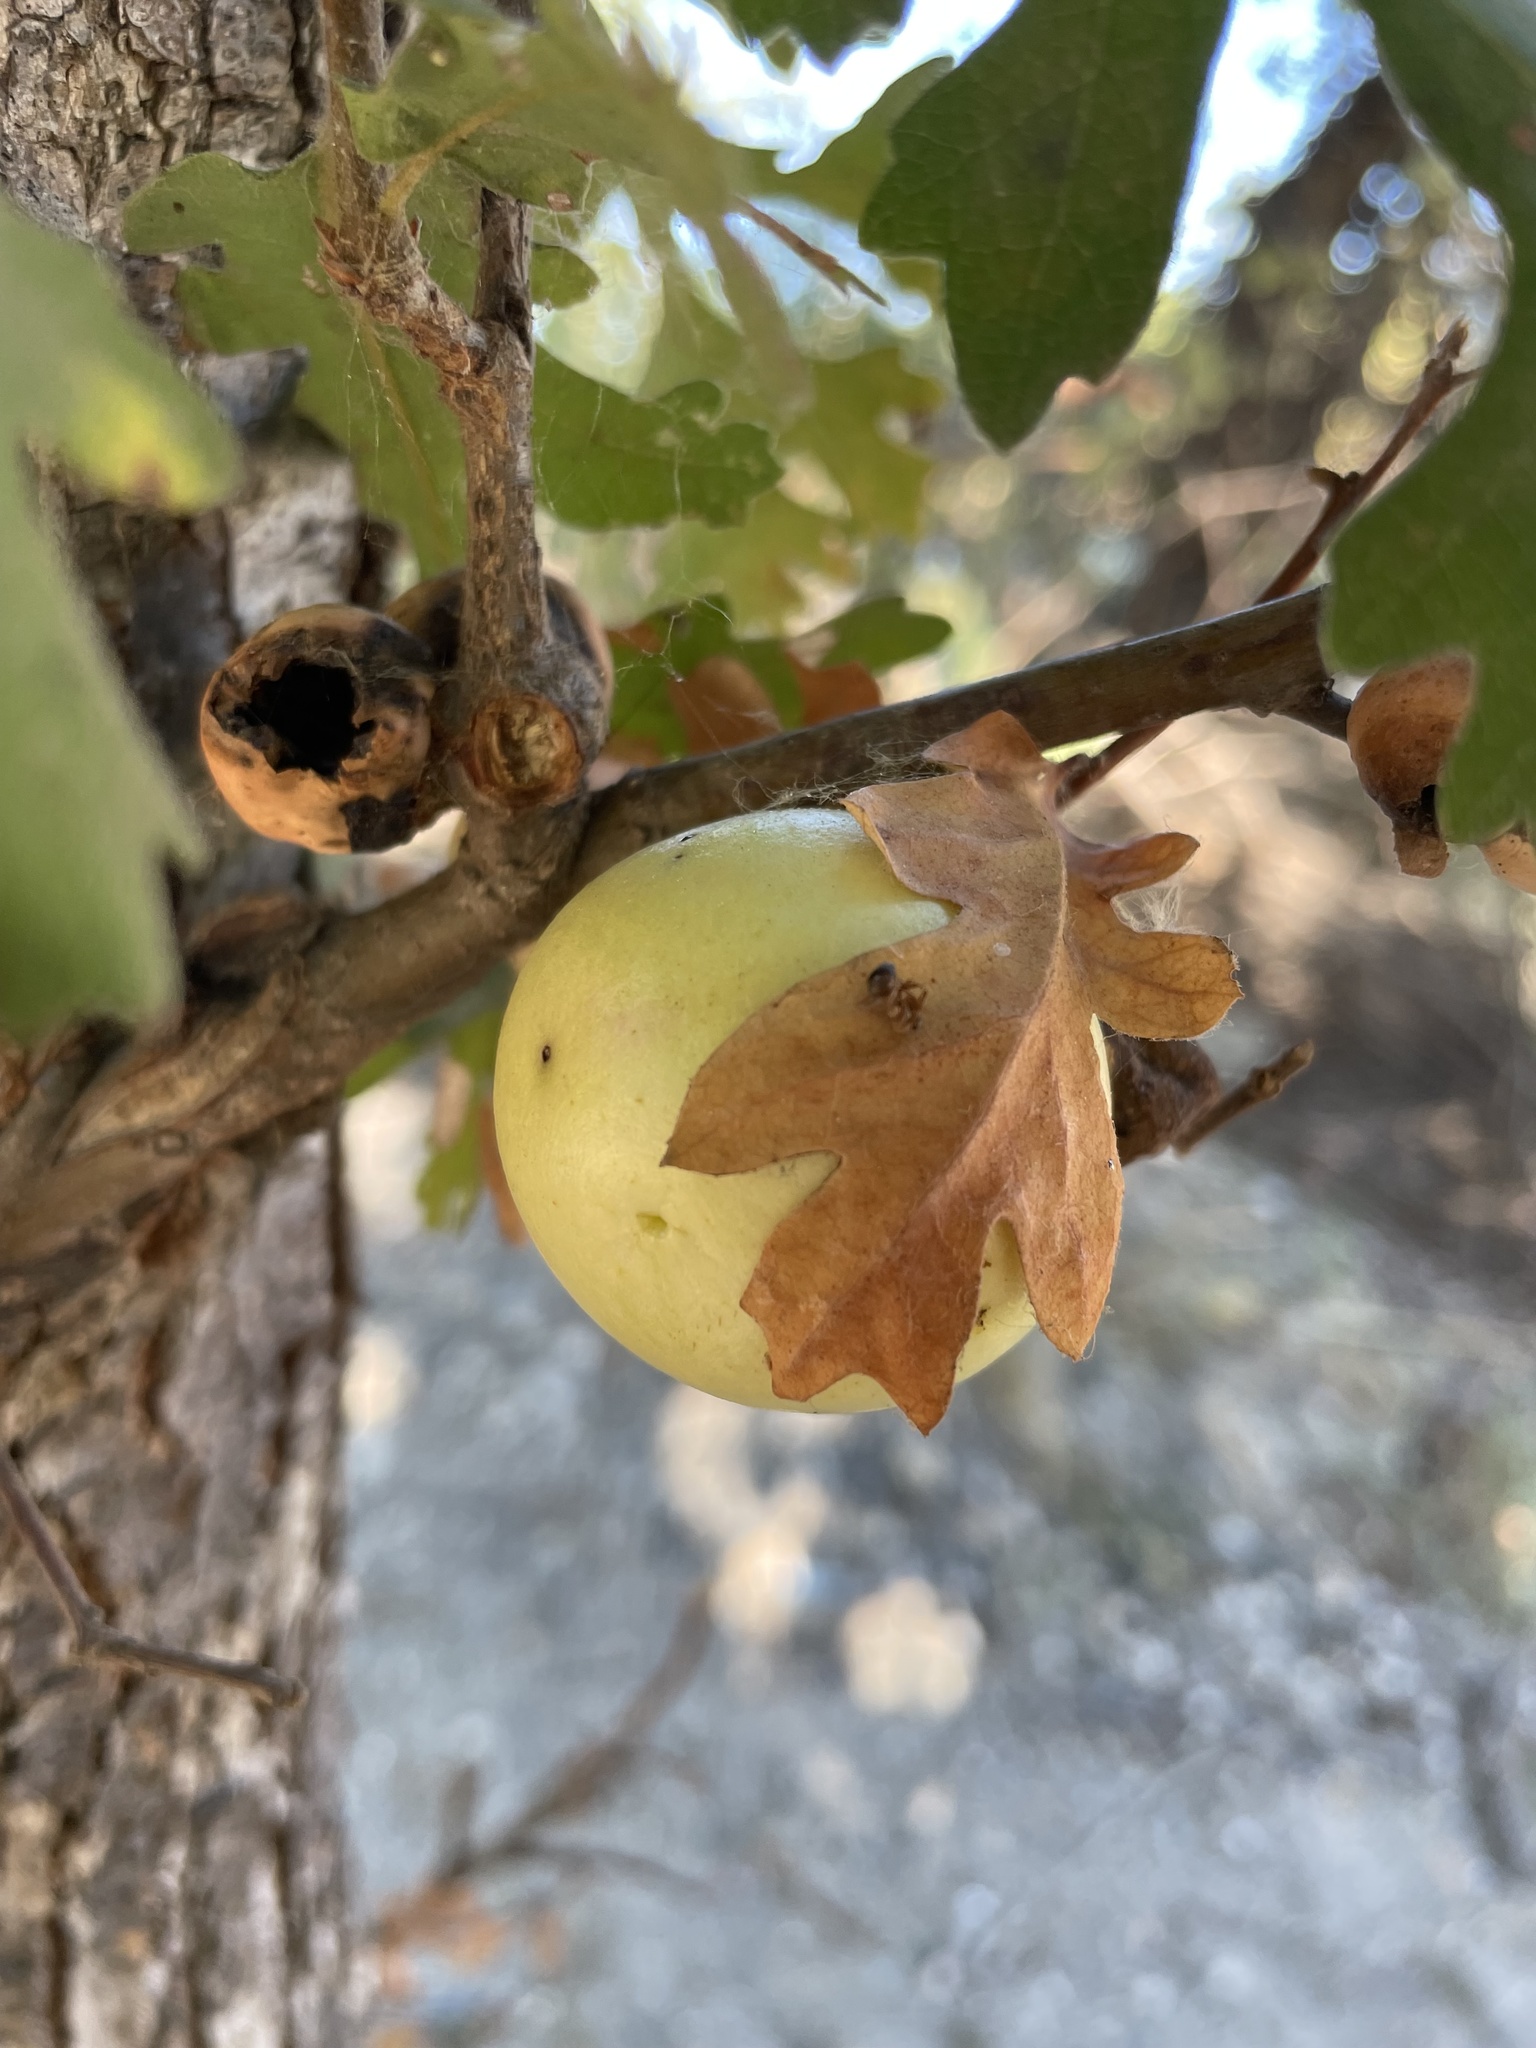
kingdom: Animalia
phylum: Arthropoda
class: Insecta
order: Hymenoptera
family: Cynipidae
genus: Andricus
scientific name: Andricus quercuscalifornicus
